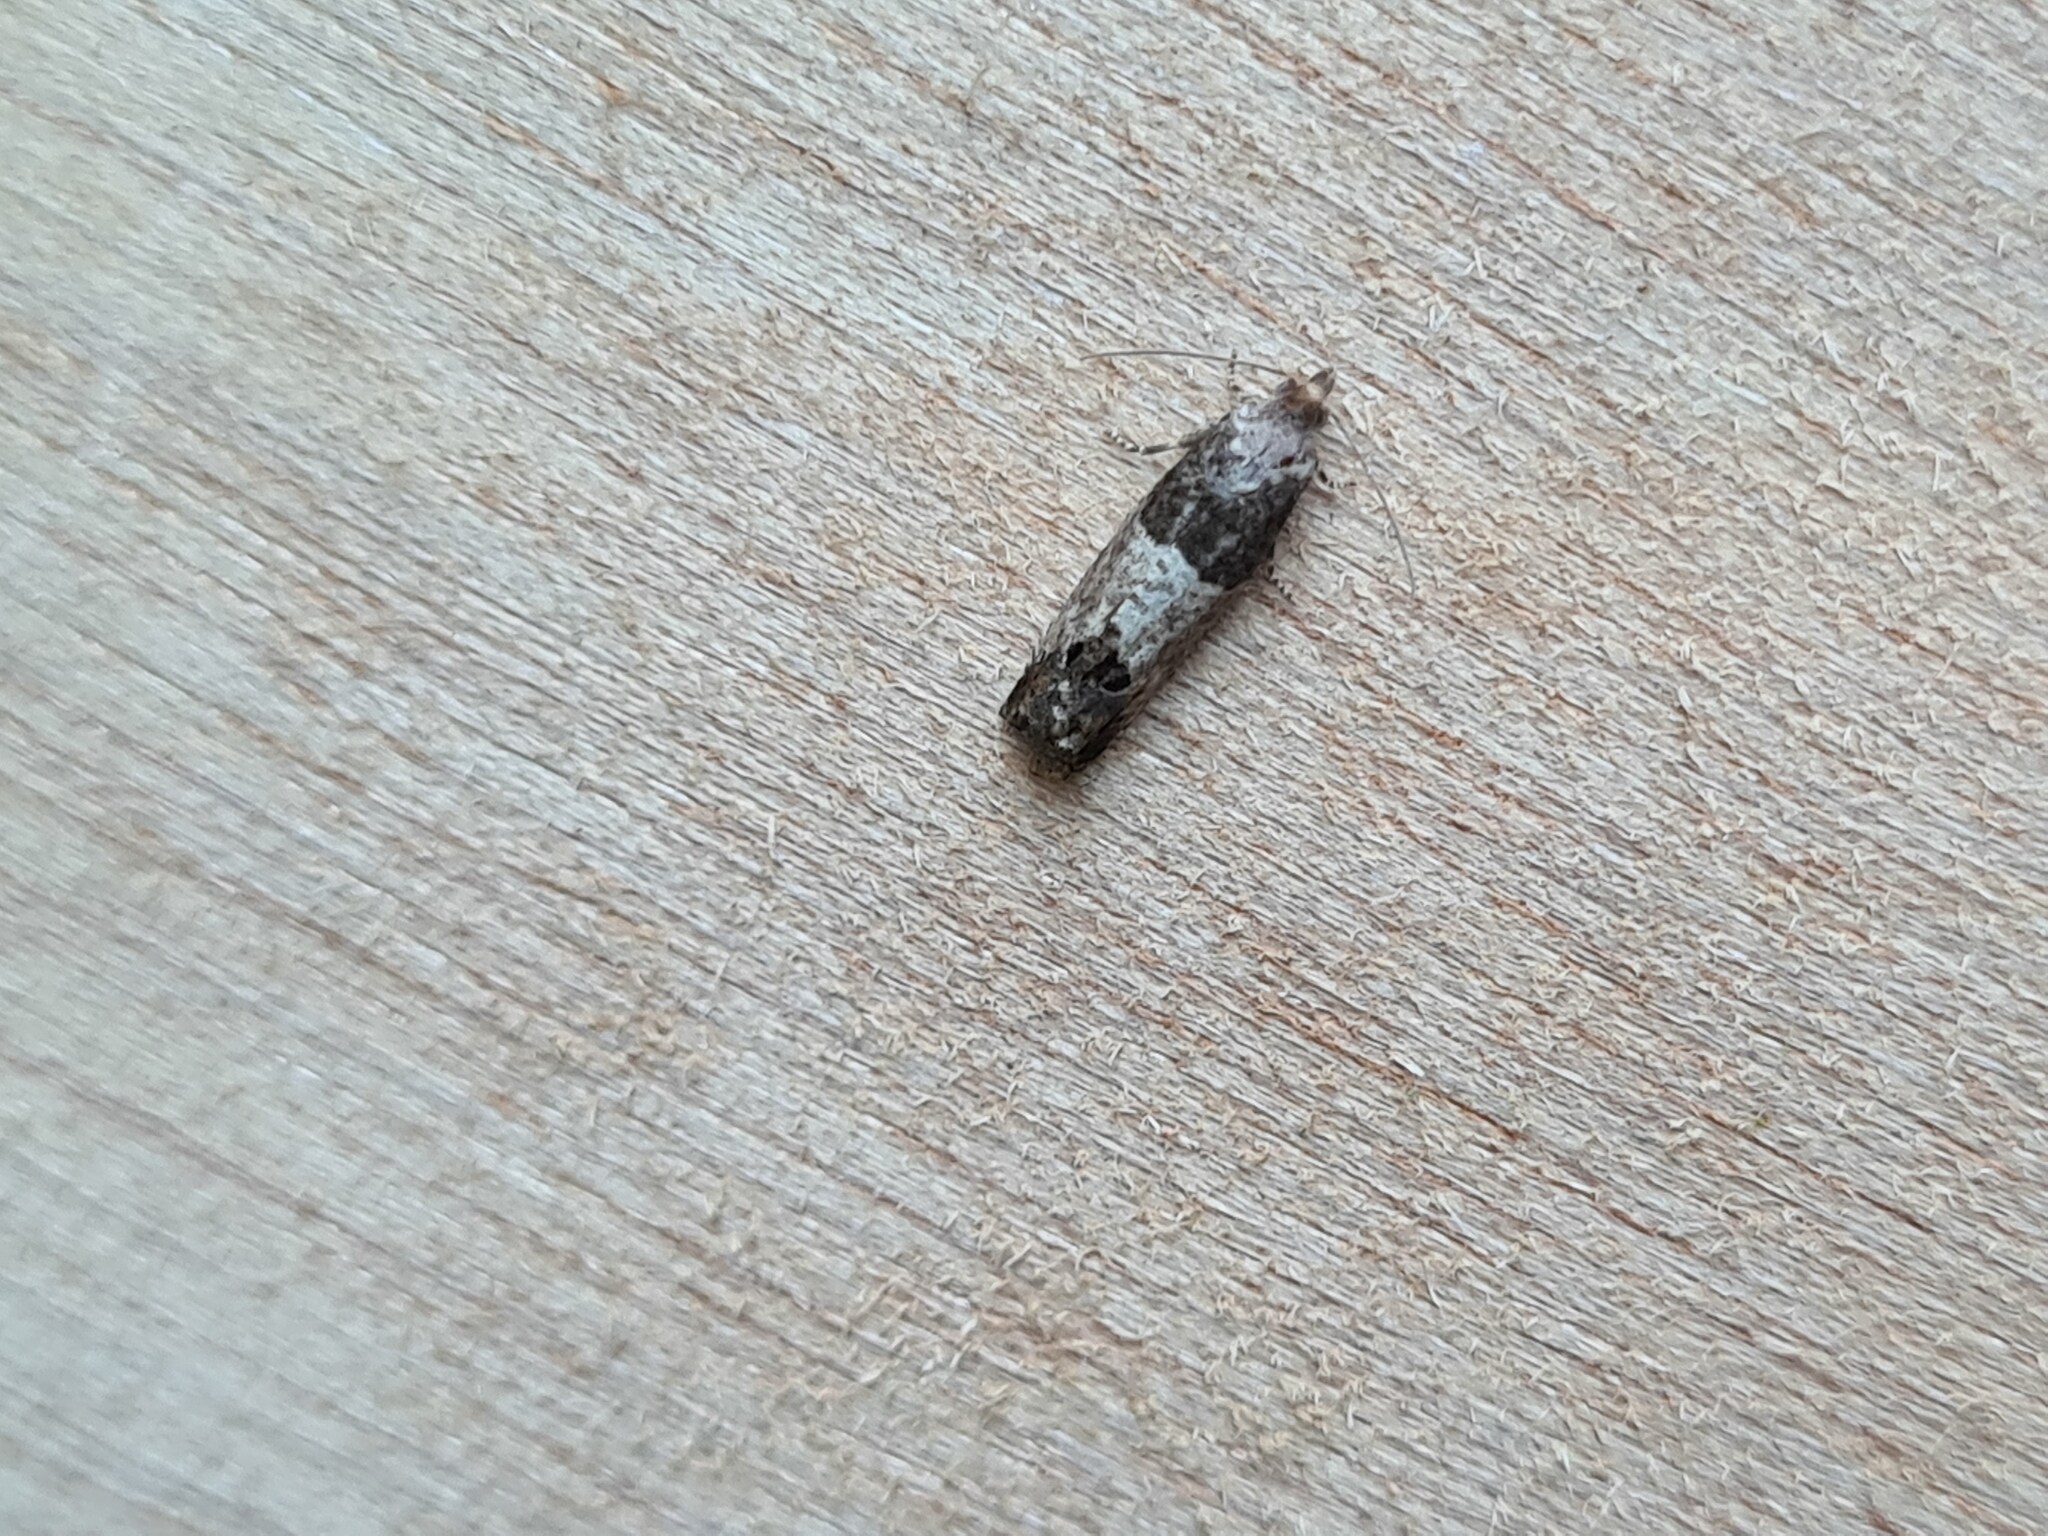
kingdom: Animalia
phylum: Arthropoda
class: Insecta
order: Lepidoptera
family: Tortricidae
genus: Spilonota
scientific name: Spilonota ocellana
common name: Bud moth
